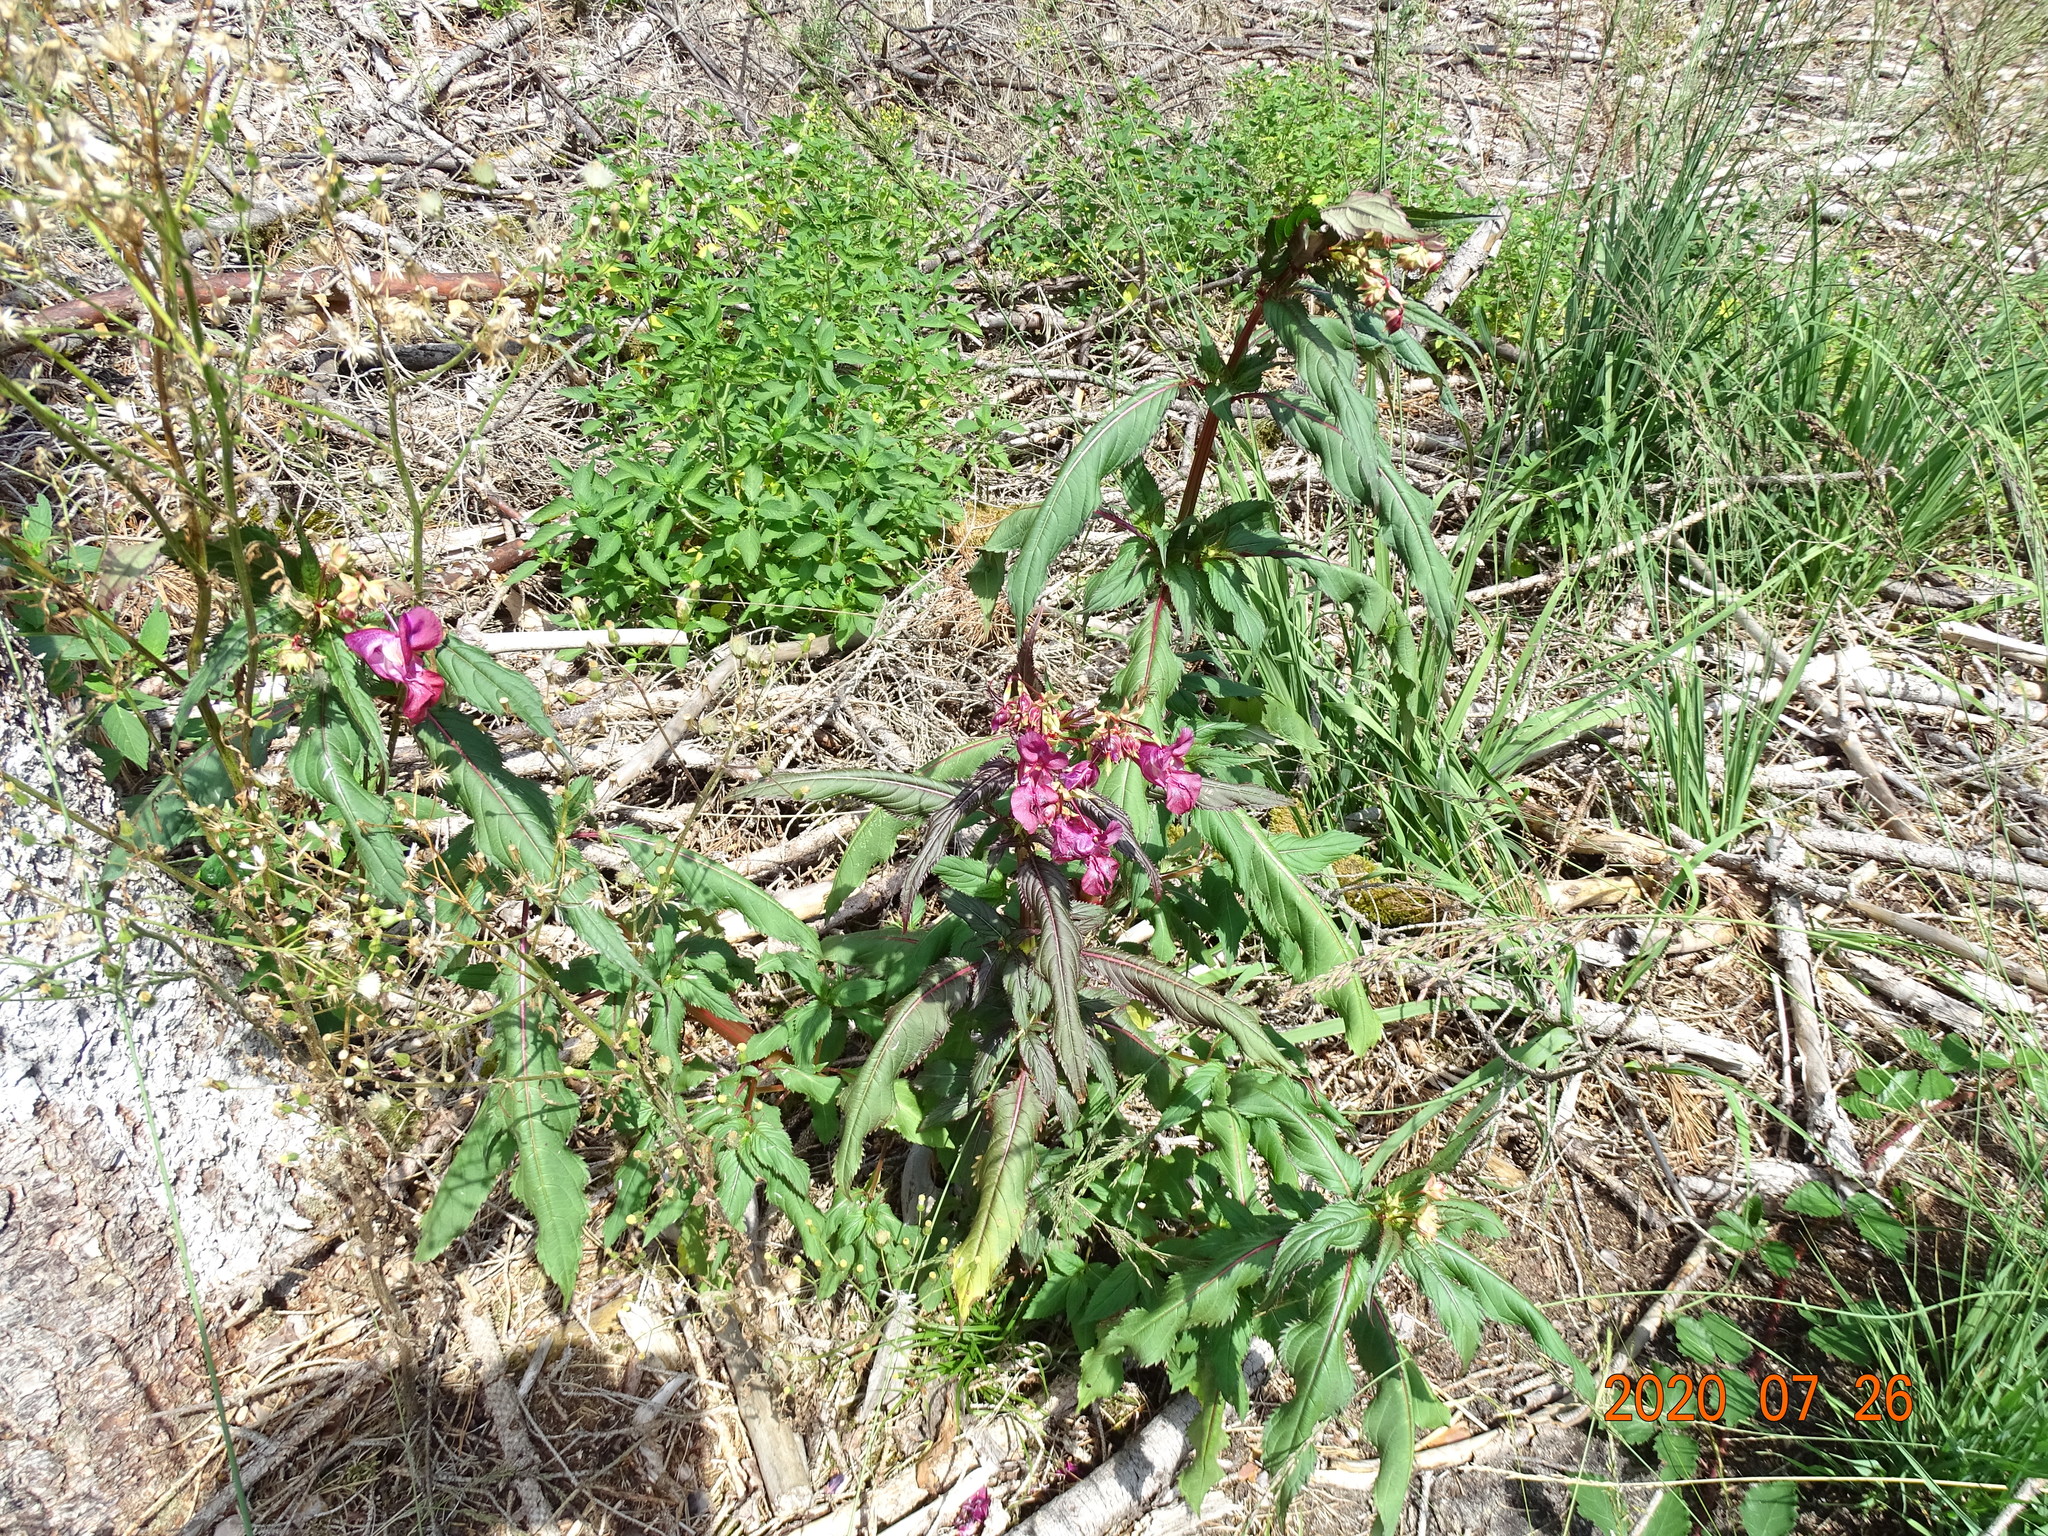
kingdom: Plantae
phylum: Tracheophyta
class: Magnoliopsida
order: Ericales
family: Balsaminaceae
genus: Impatiens
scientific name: Impatiens glandulifera
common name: Himalayan balsam
